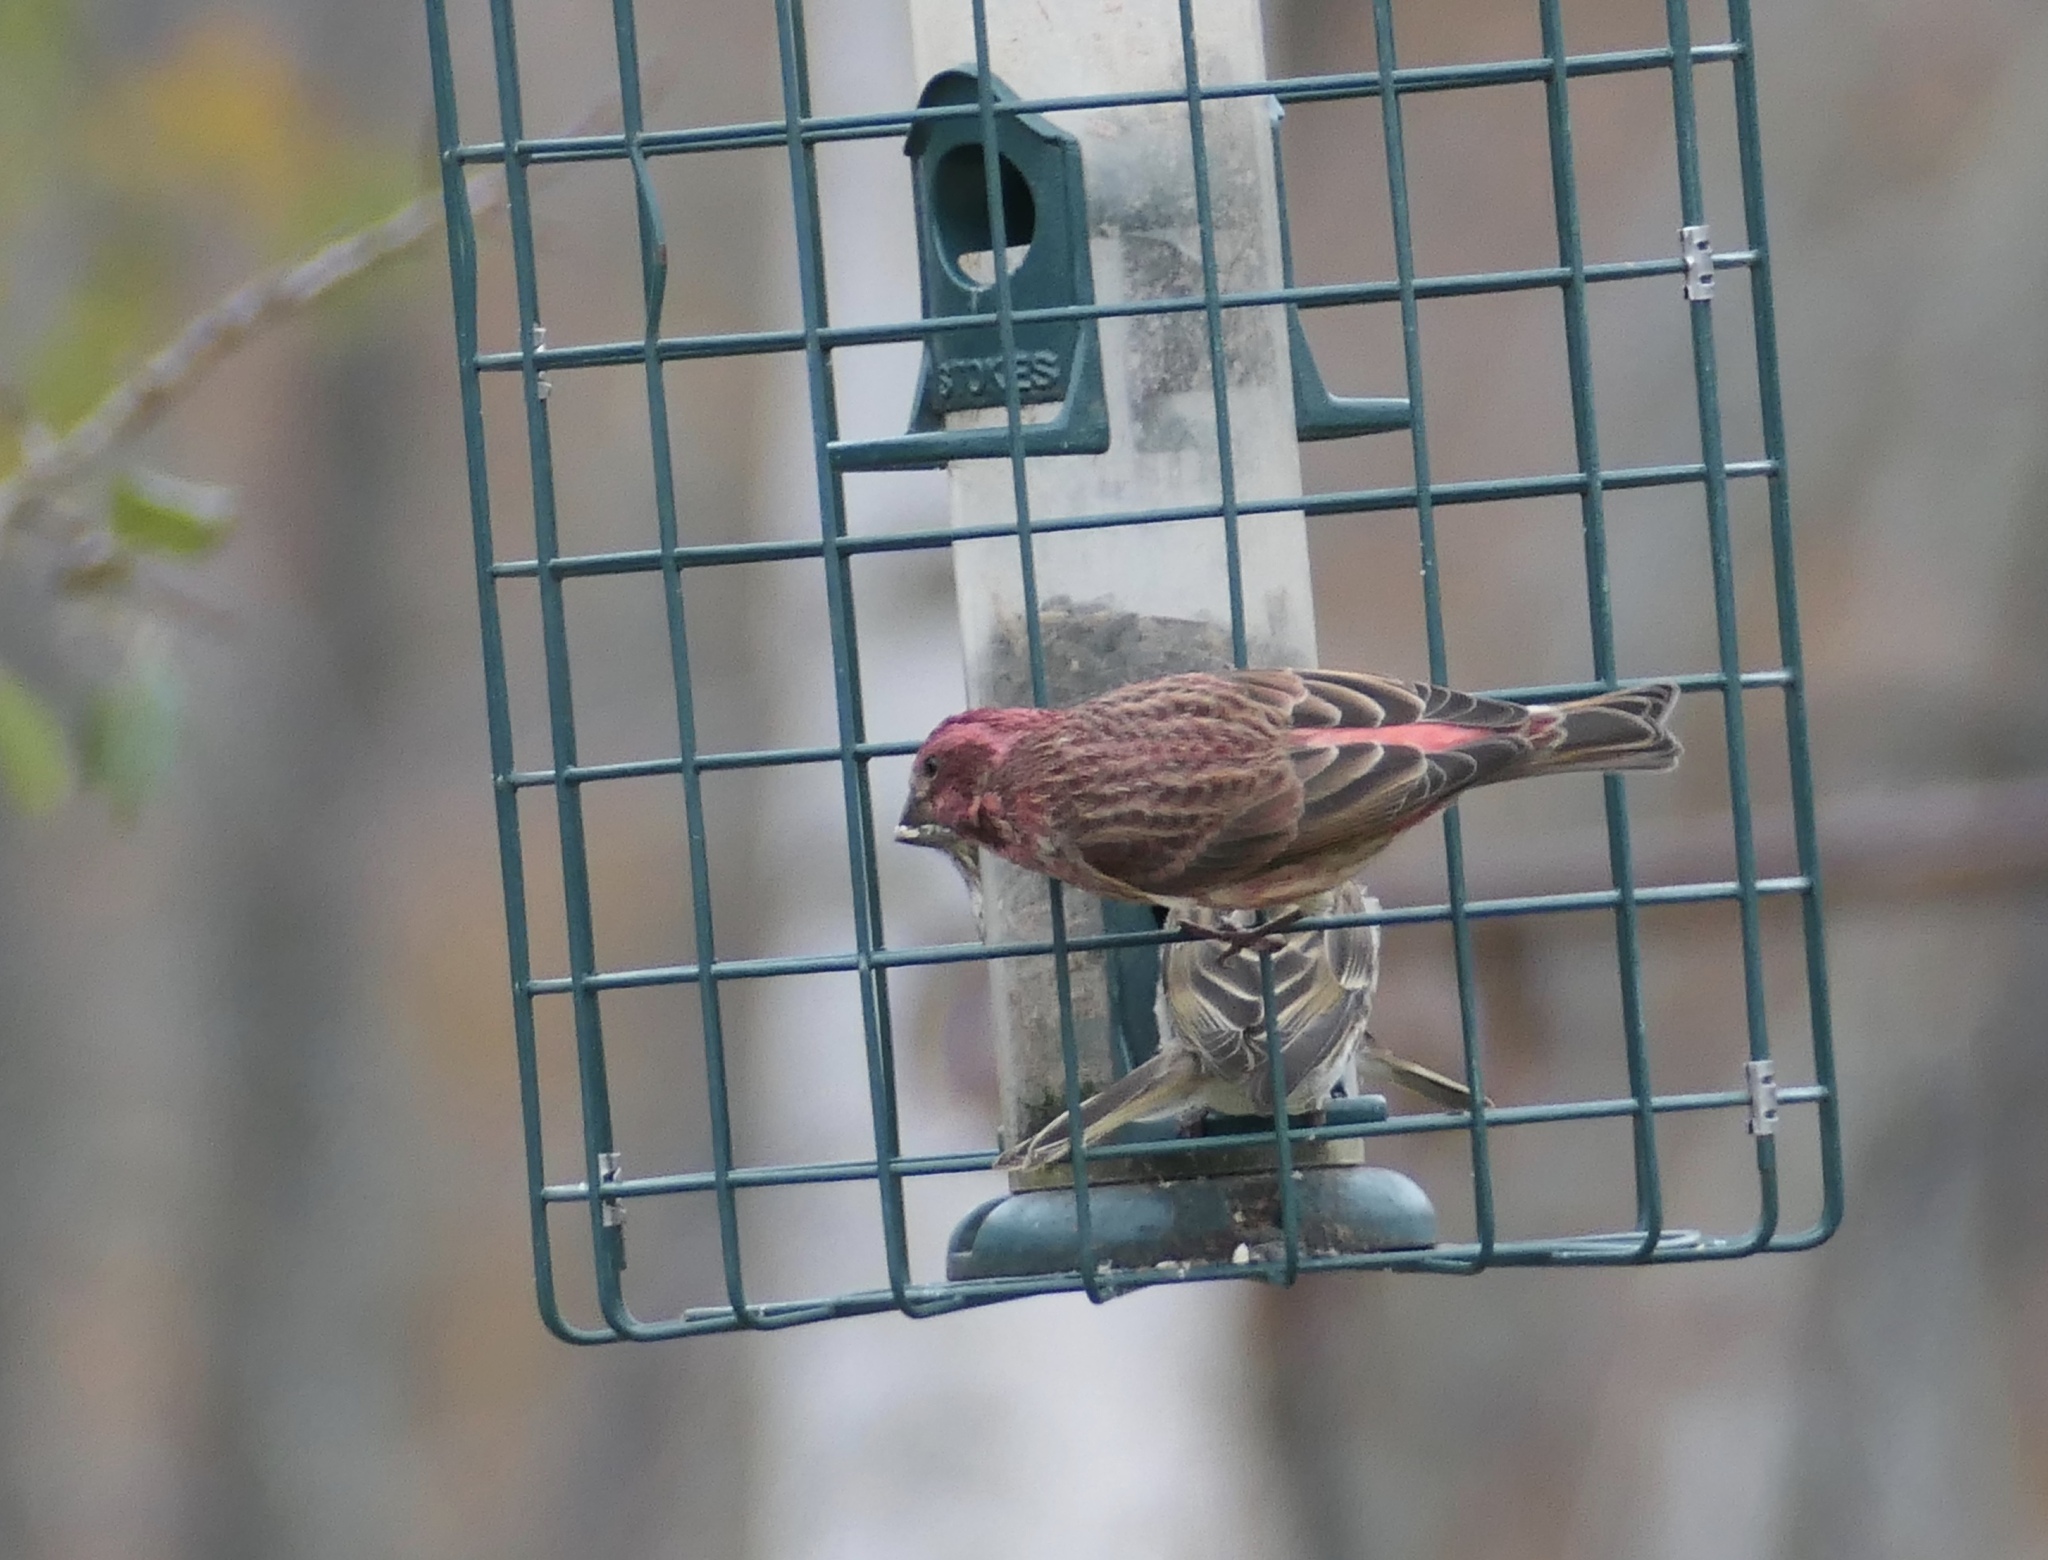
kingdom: Animalia
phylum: Chordata
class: Aves
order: Passeriformes
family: Fringillidae
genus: Haemorhous
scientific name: Haemorhous purpureus
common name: Purple finch
